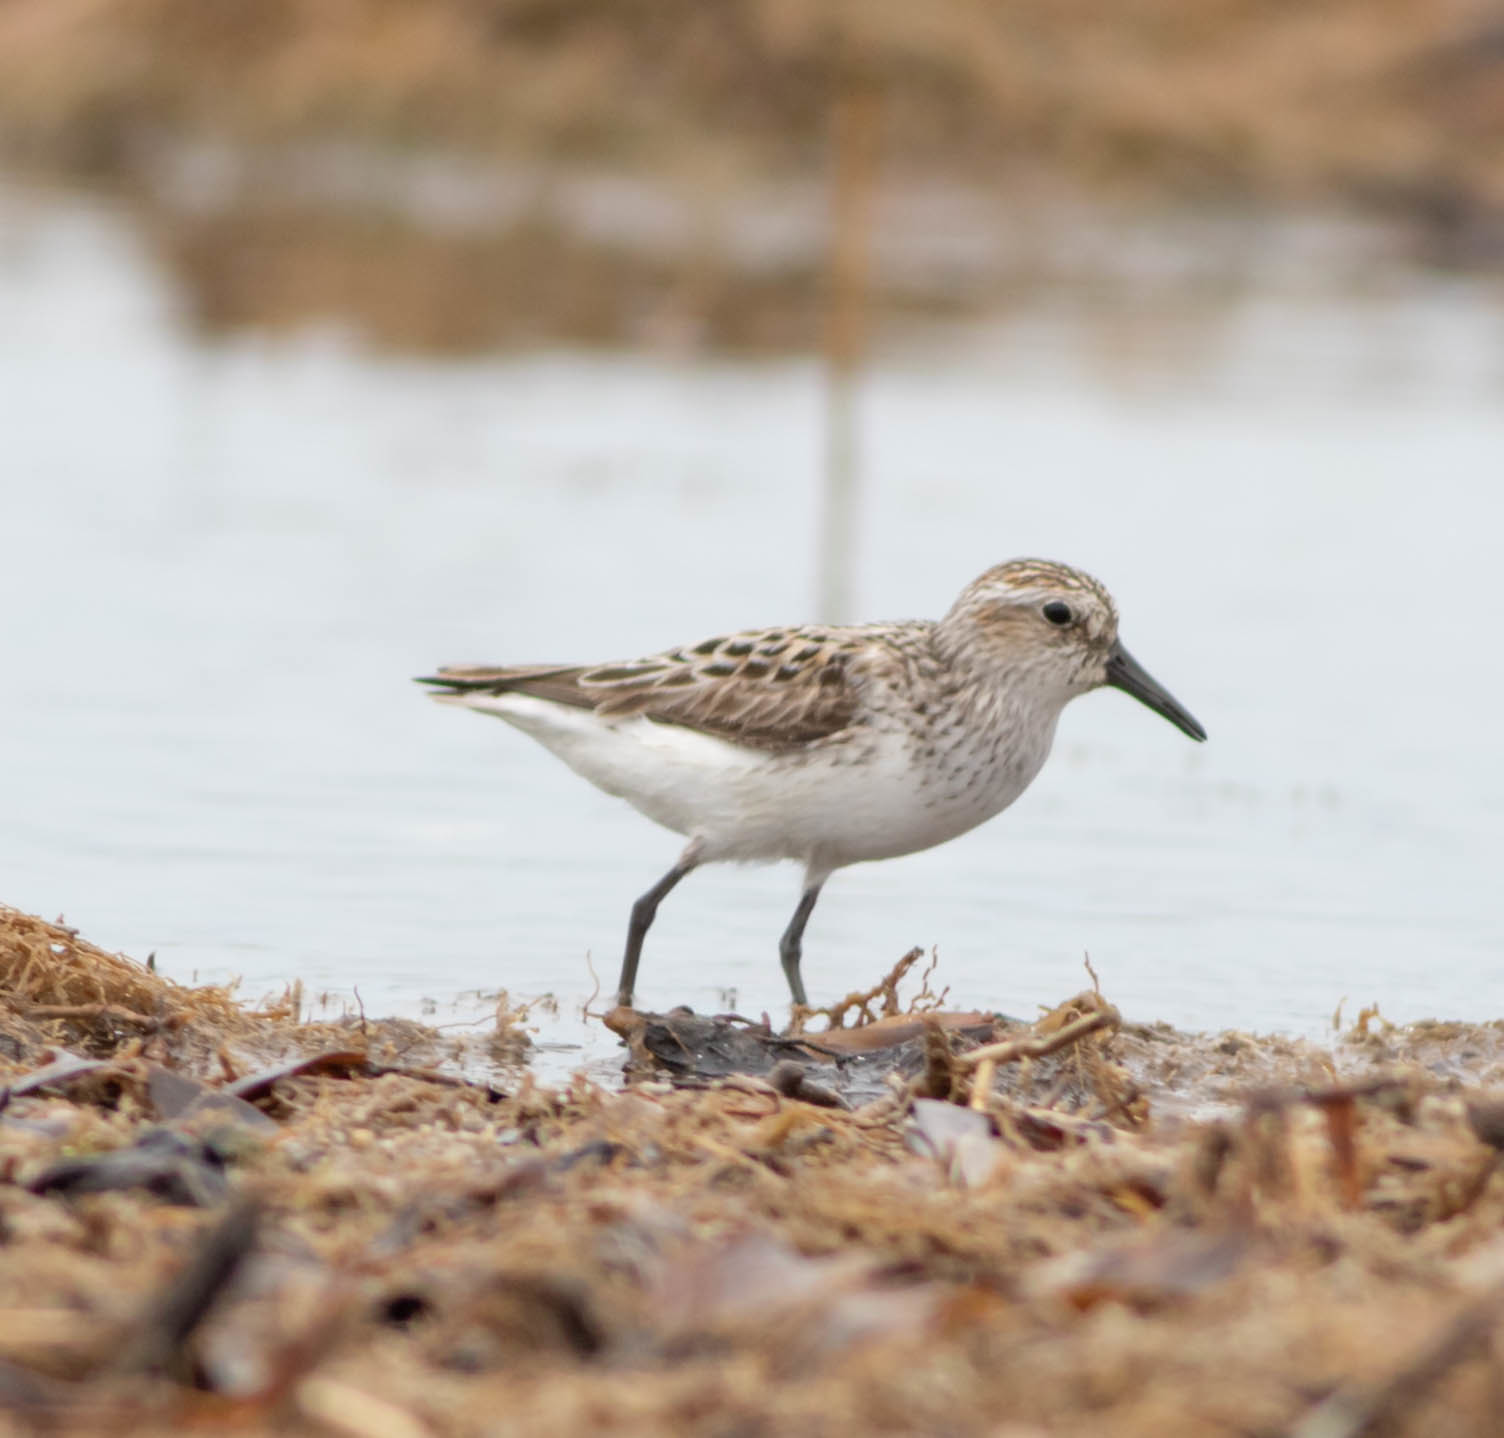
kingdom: Animalia
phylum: Chordata
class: Aves
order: Charadriiformes
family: Scolopacidae
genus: Calidris
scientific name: Calidris pusilla
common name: Semipalmated sandpiper
